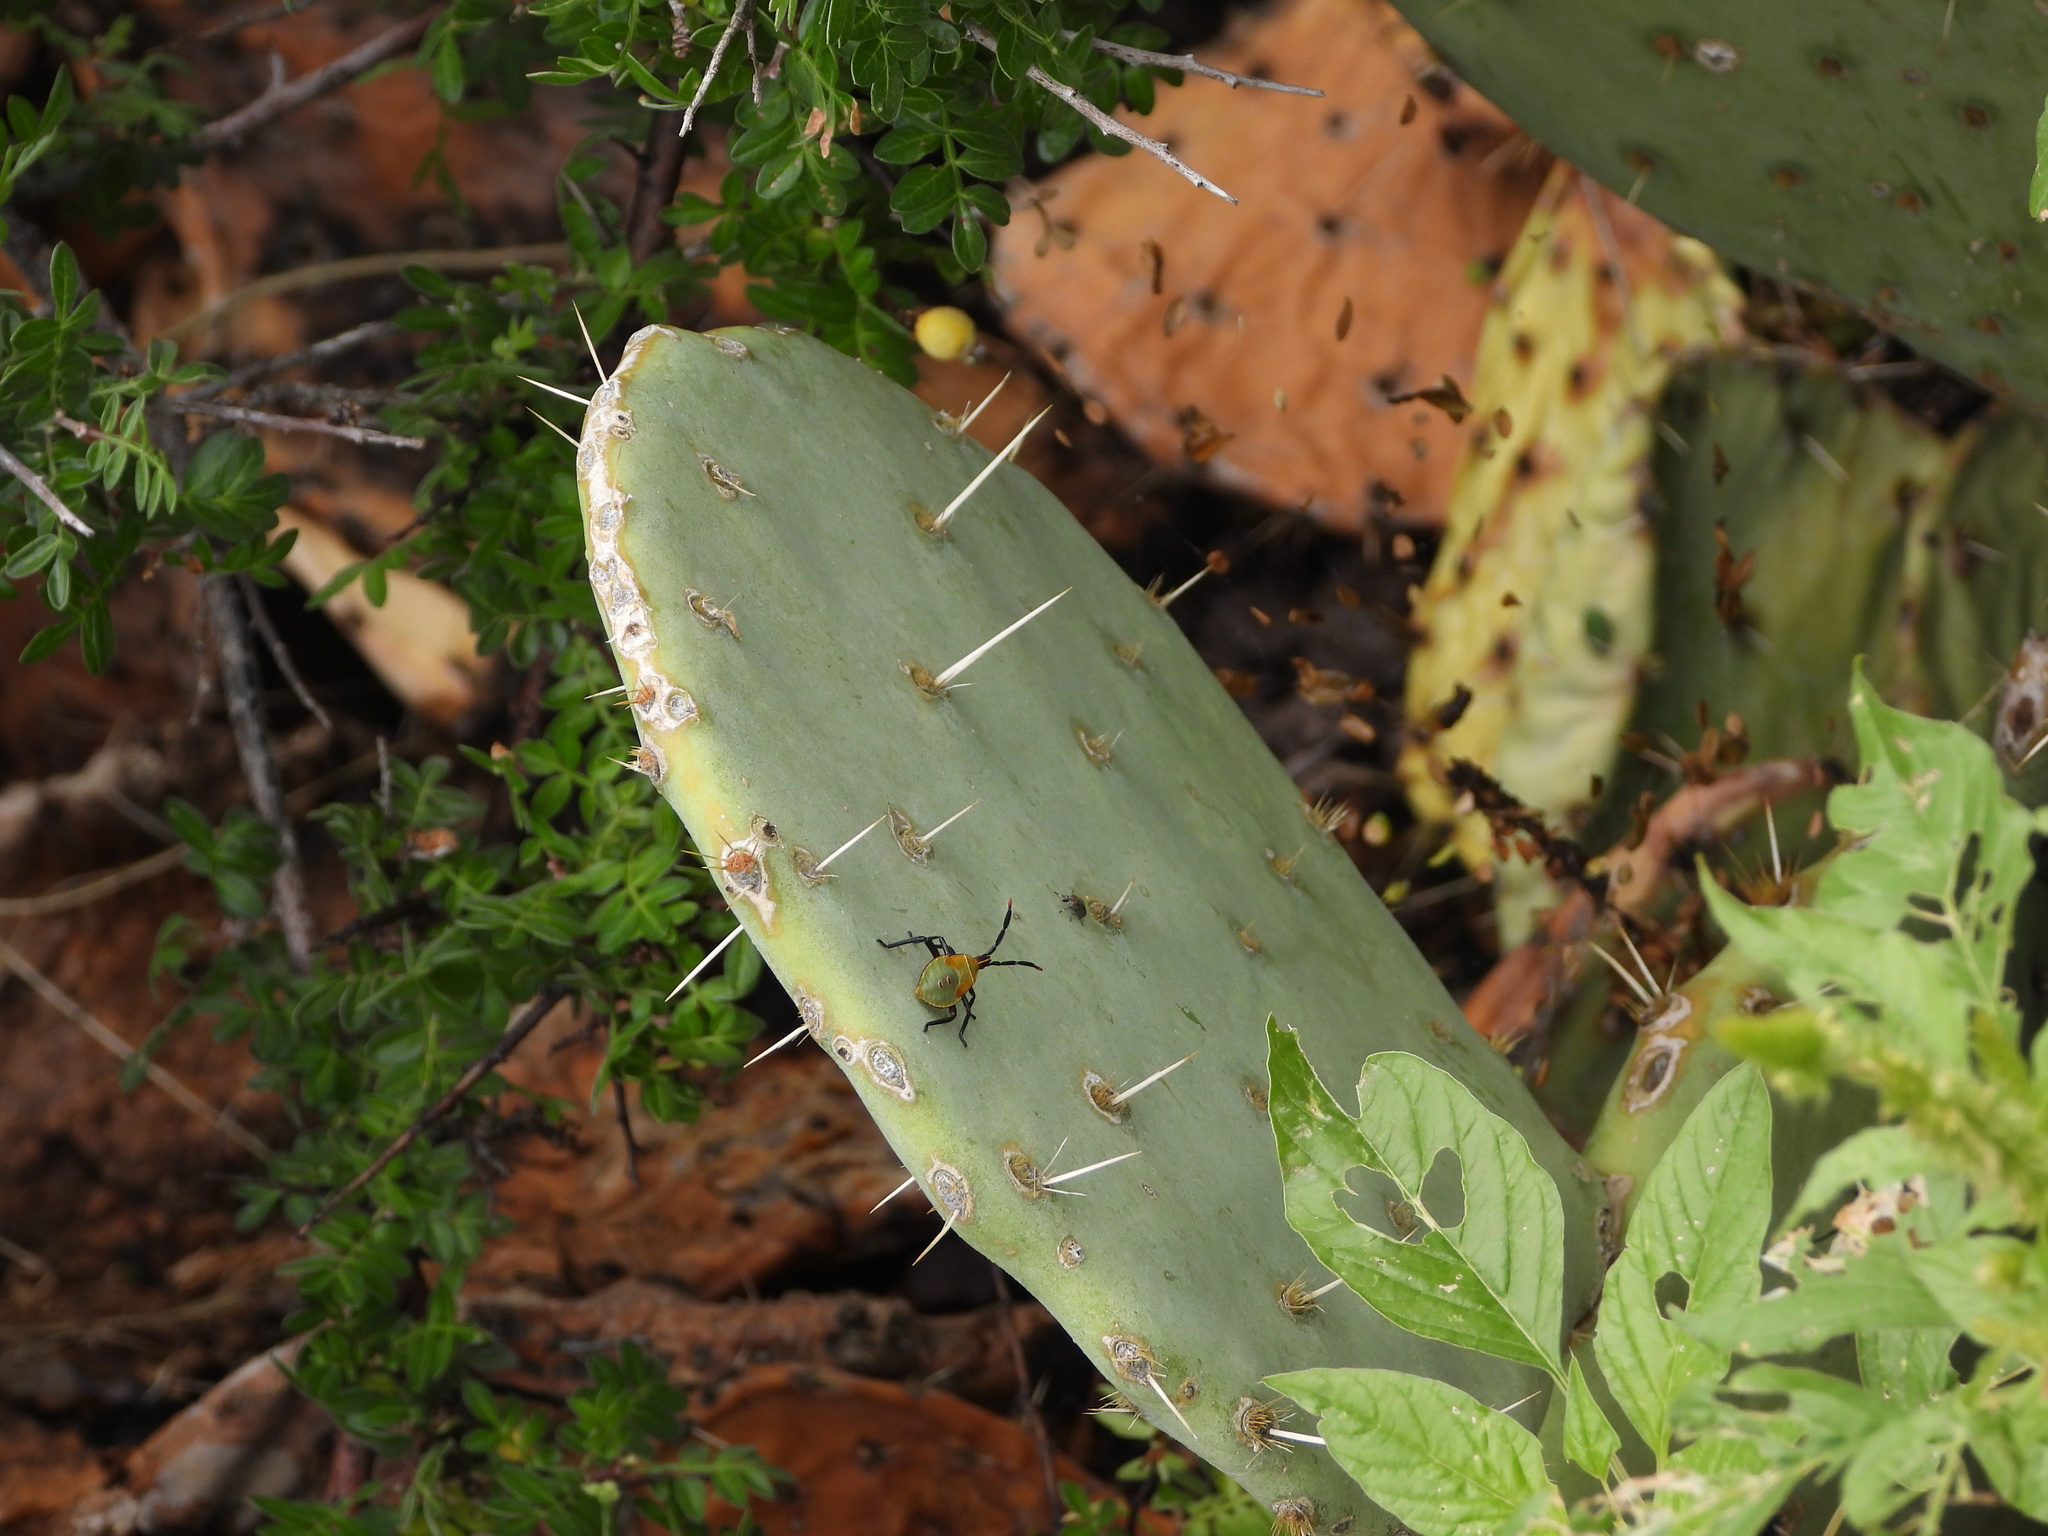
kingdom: Animalia
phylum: Arthropoda
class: Insecta
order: Hemiptera
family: Coreidae
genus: Chelinidea
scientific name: Chelinidea vittiger
